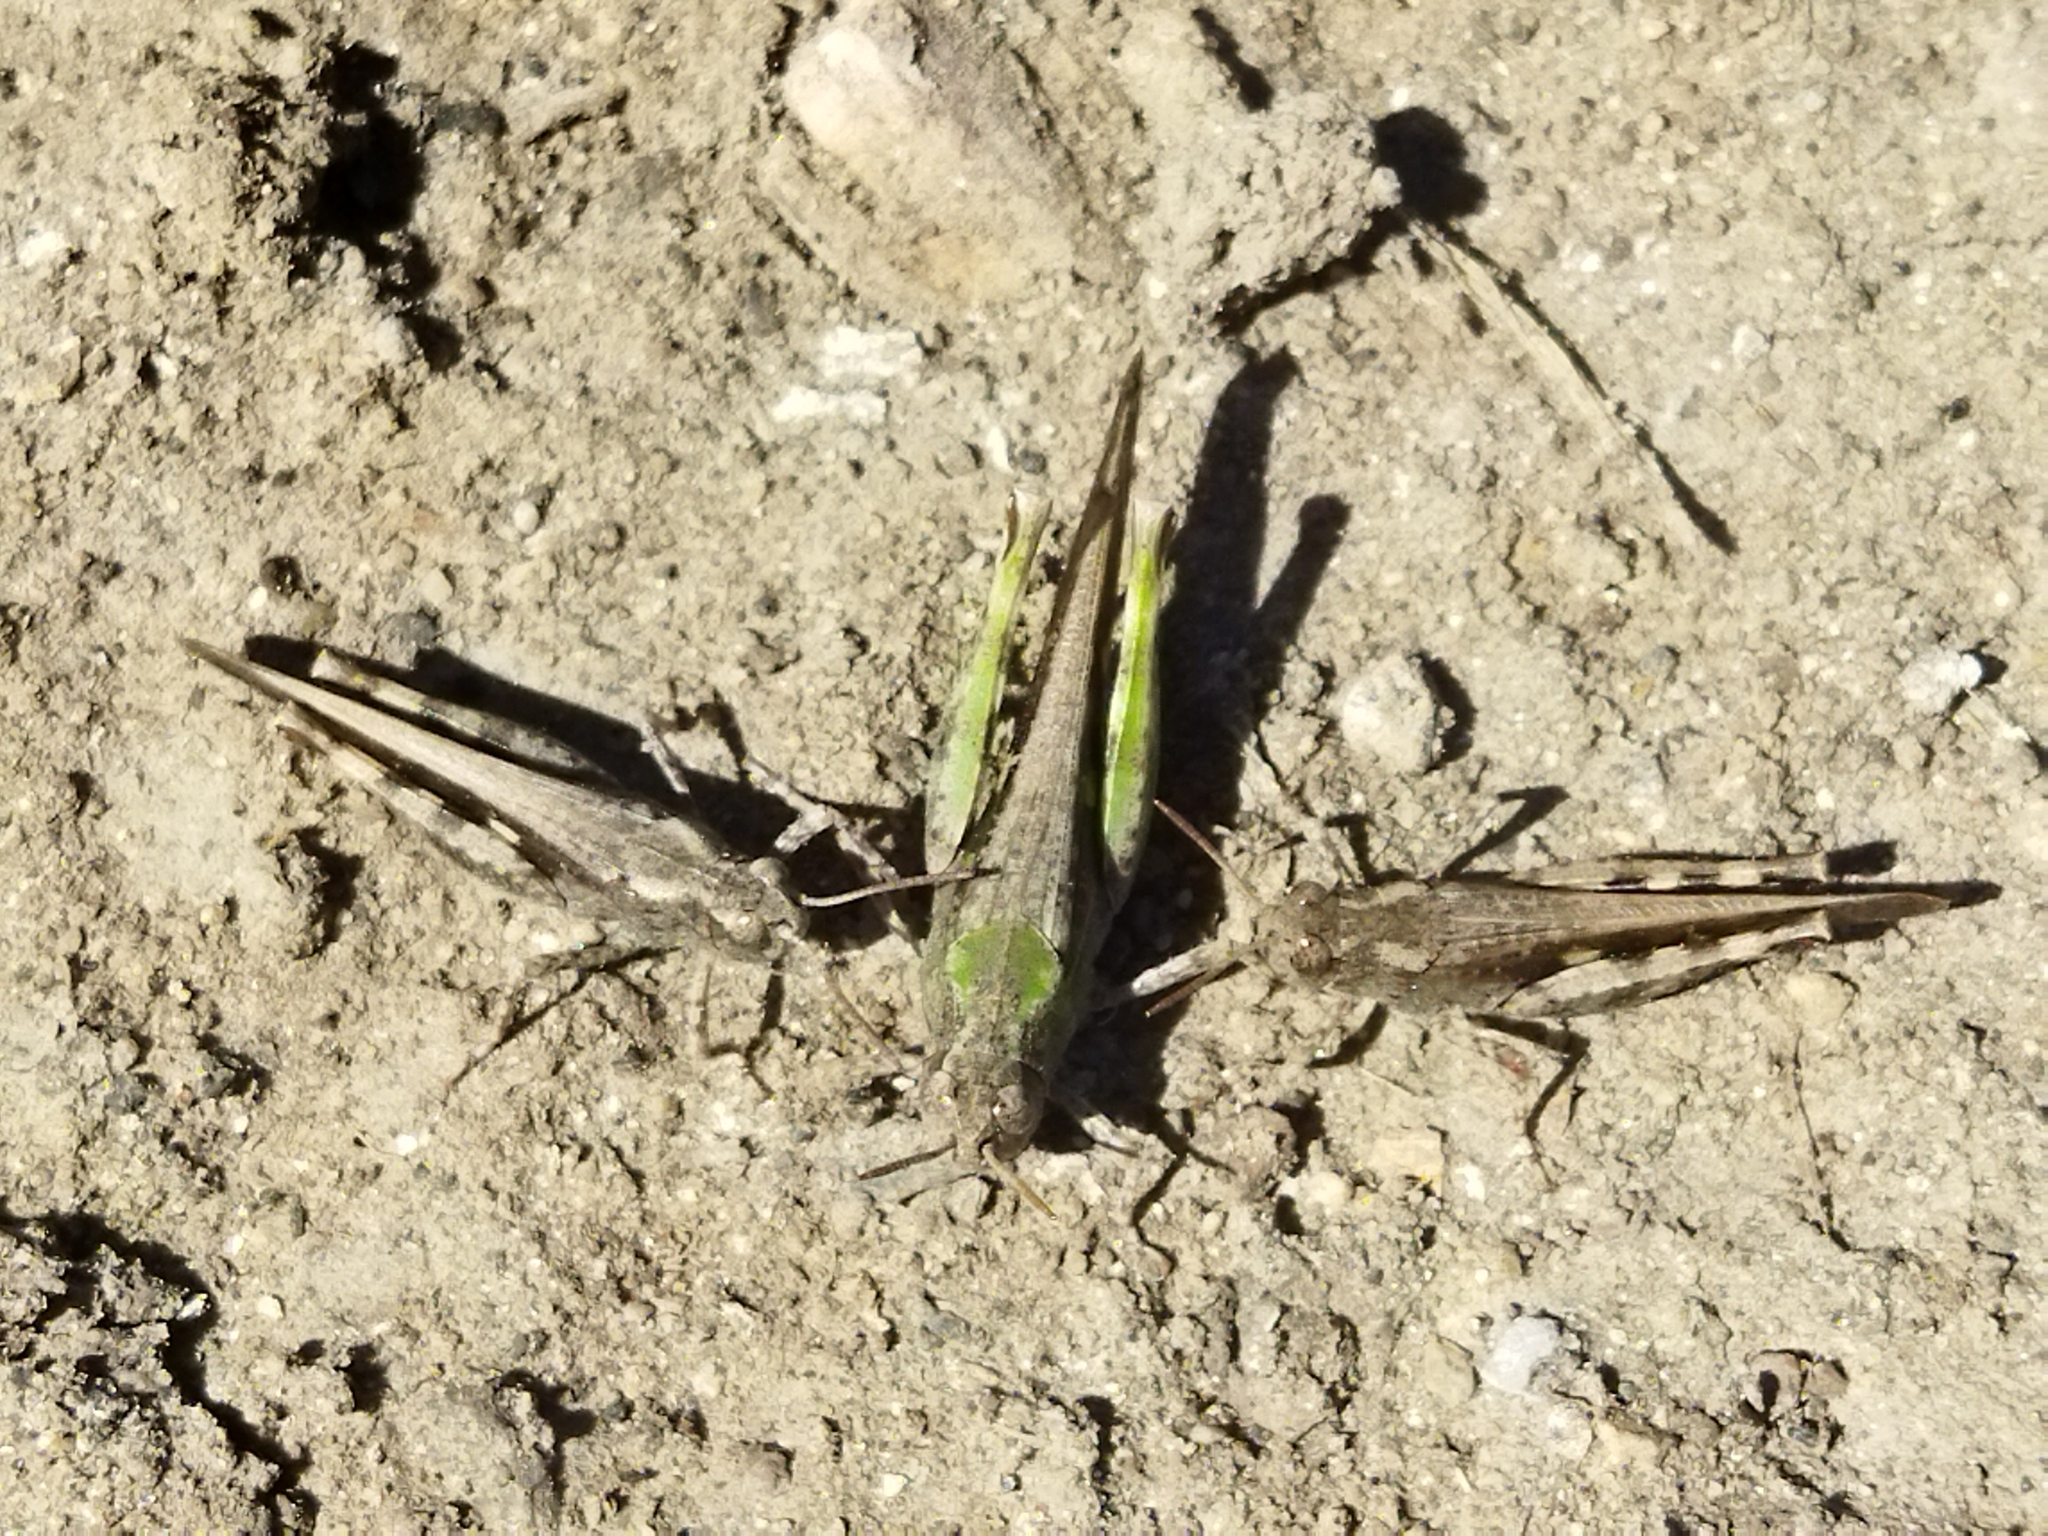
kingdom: Animalia
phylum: Arthropoda
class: Insecta
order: Orthoptera
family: Acrididae
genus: Aiolopus
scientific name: Aiolopus strepens
